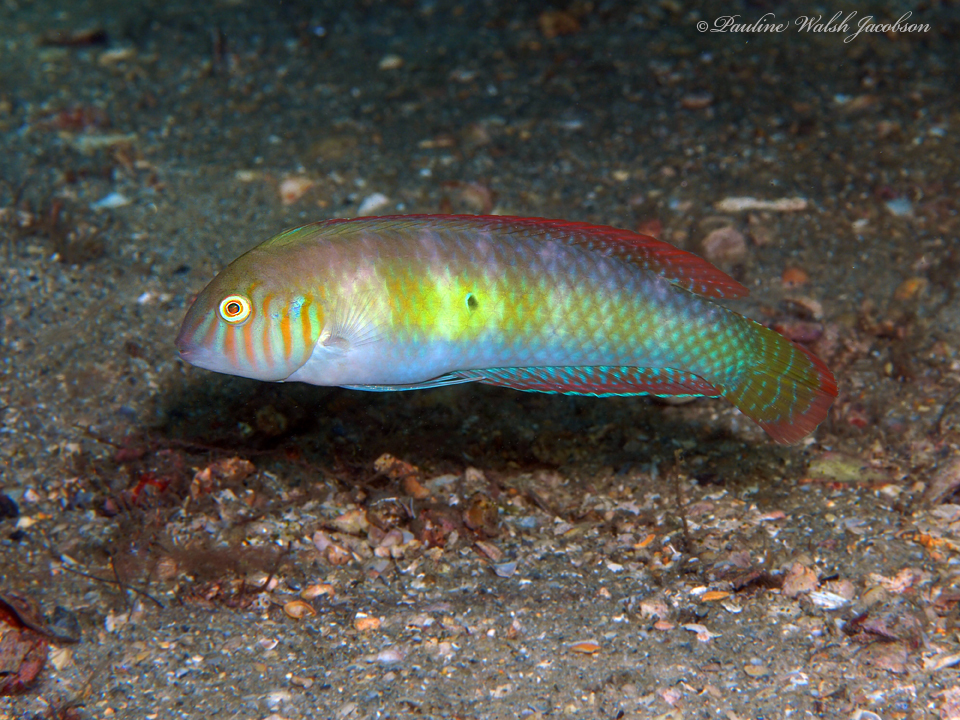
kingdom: Animalia
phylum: Chordata
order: Perciformes
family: Labridae
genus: Xyrichtys
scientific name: Xyrichtys splendens
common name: Green razorfish
